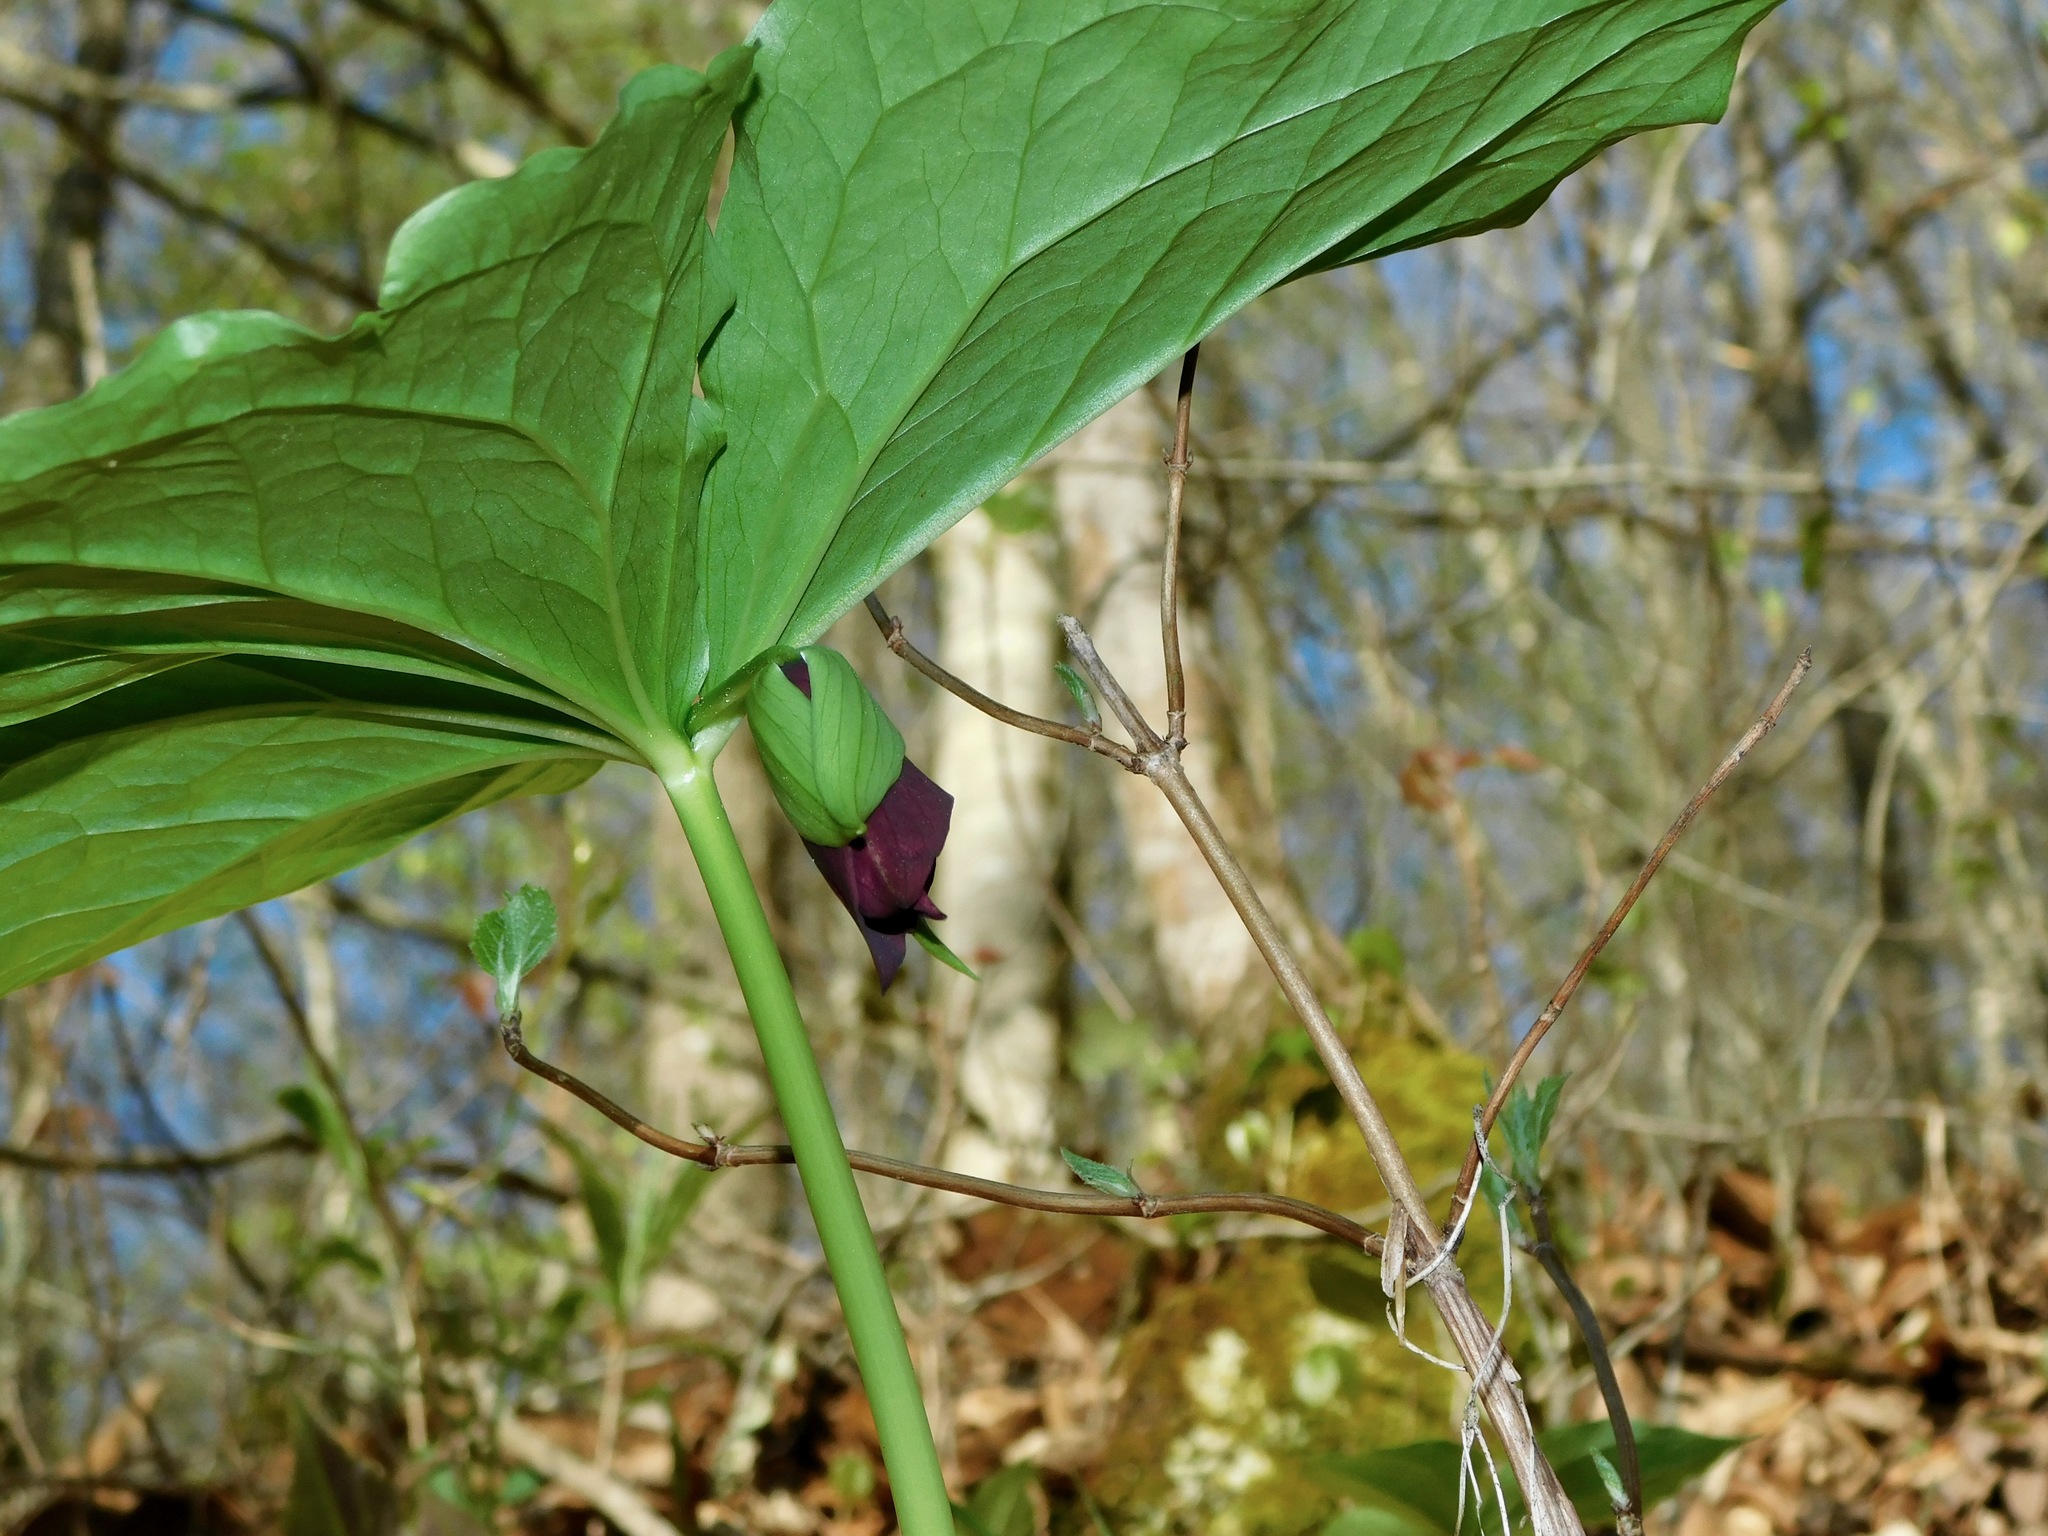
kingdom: Plantae
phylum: Tracheophyta
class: Liliopsida
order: Liliales
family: Melanthiaceae
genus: Trillium
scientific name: Trillium vaseyi
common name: Sweet trillium
